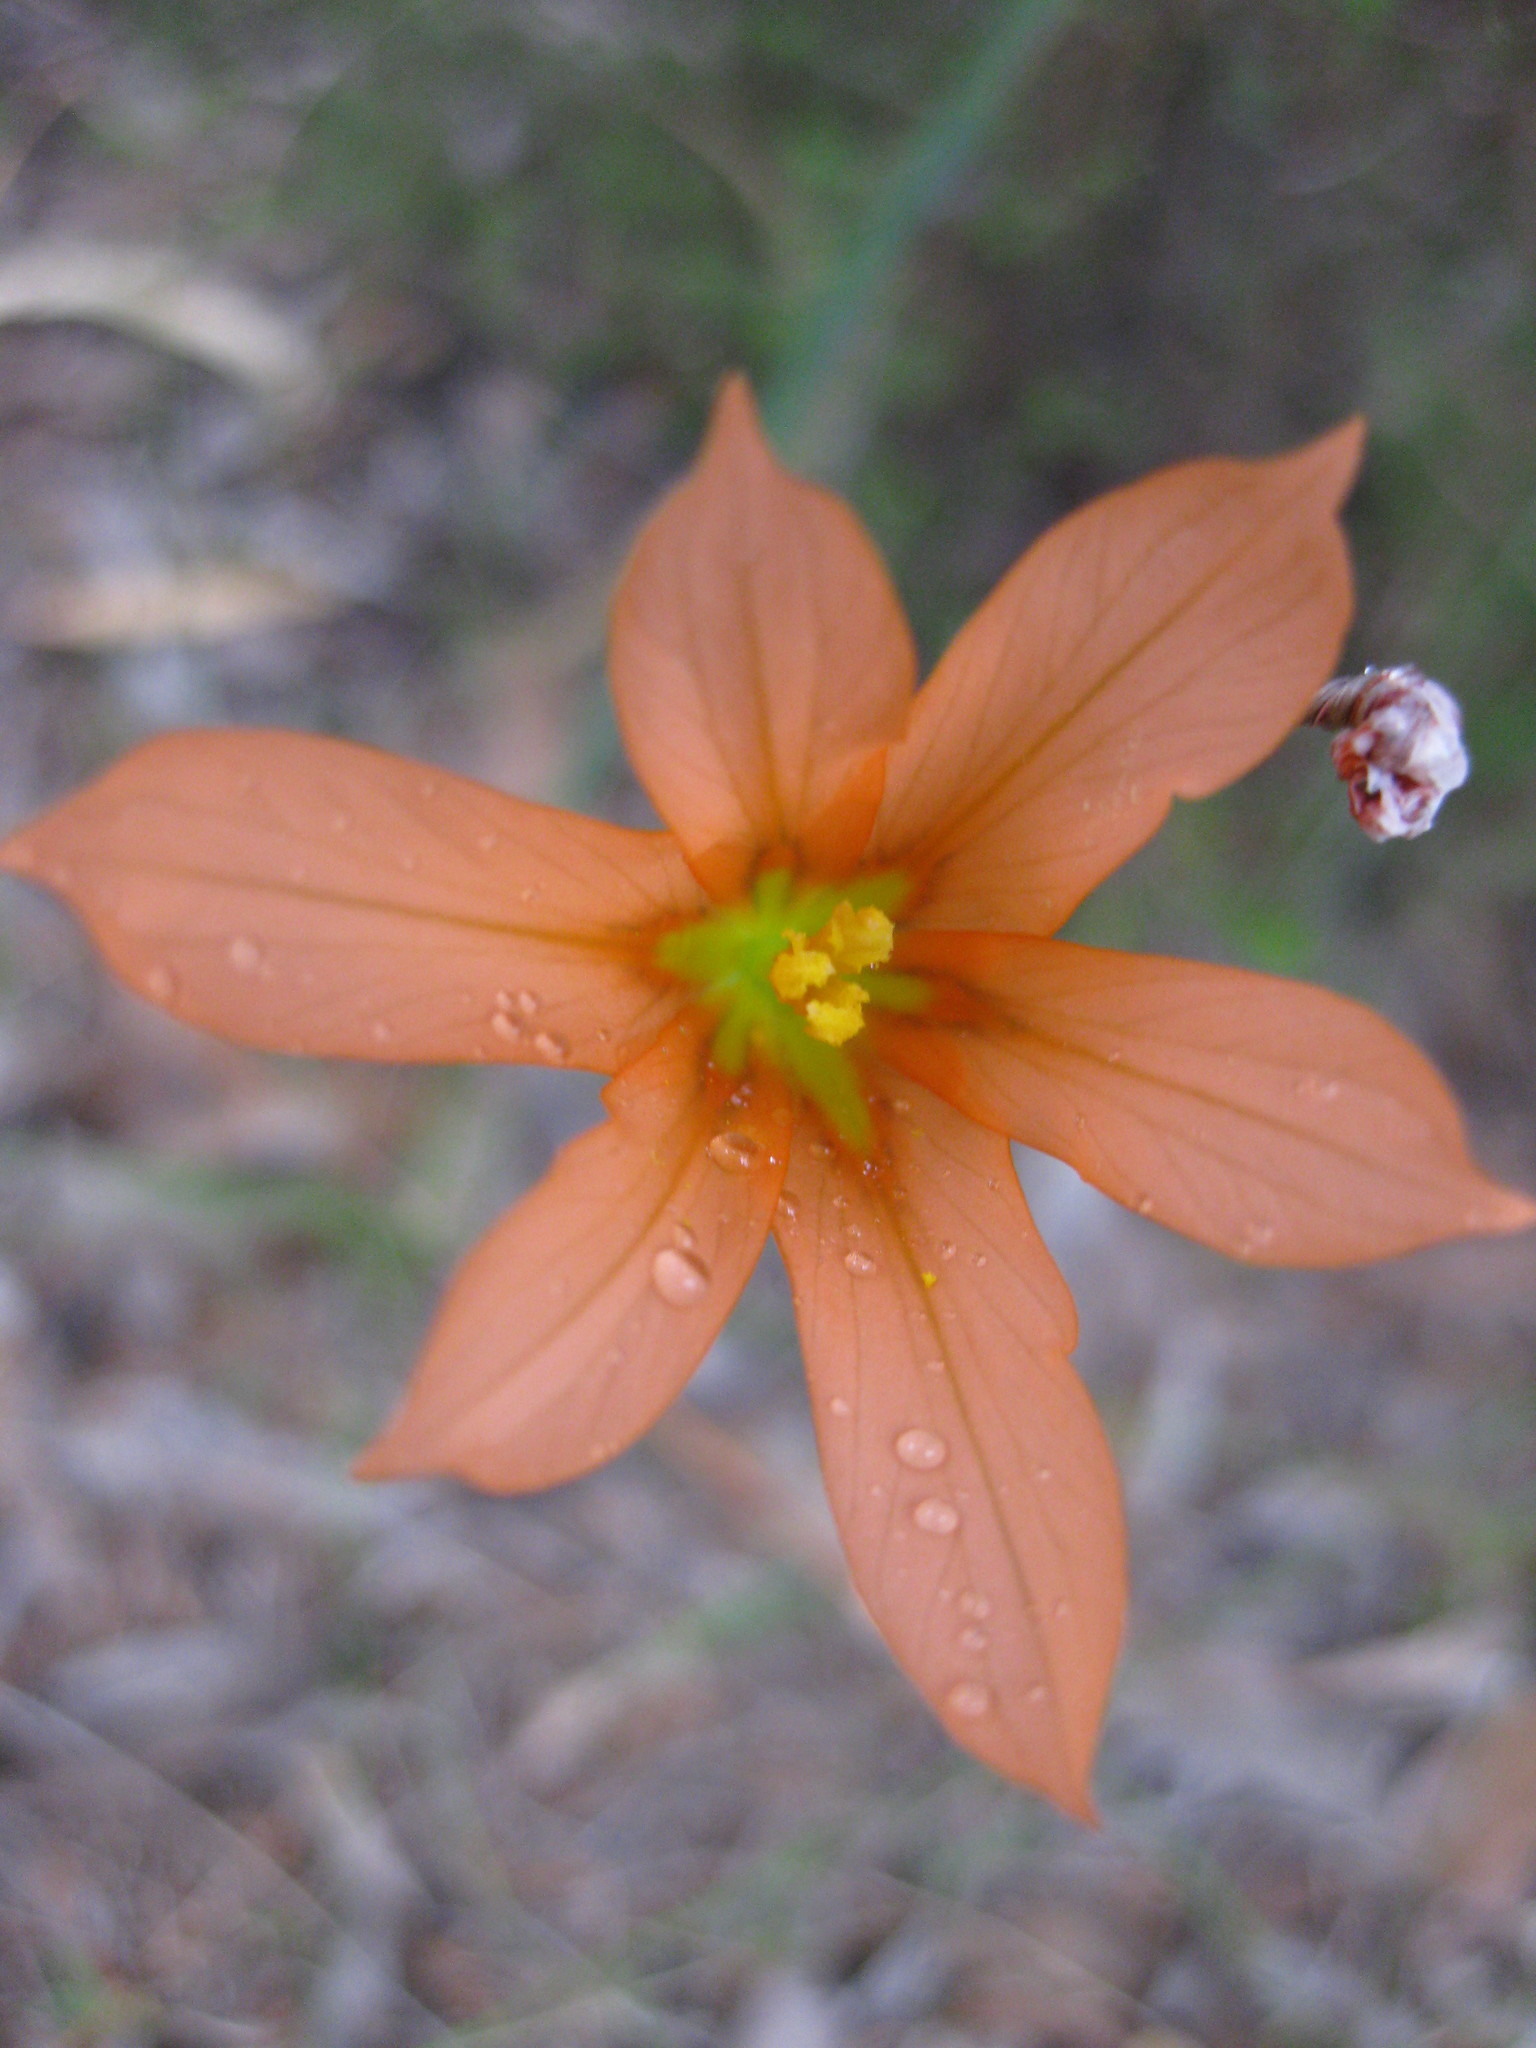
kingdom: Plantae
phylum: Tracheophyta
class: Liliopsida
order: Asparagales
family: Iridaceae
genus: Moraea
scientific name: Moraea flaccida
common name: One-leaf cape-tulip
